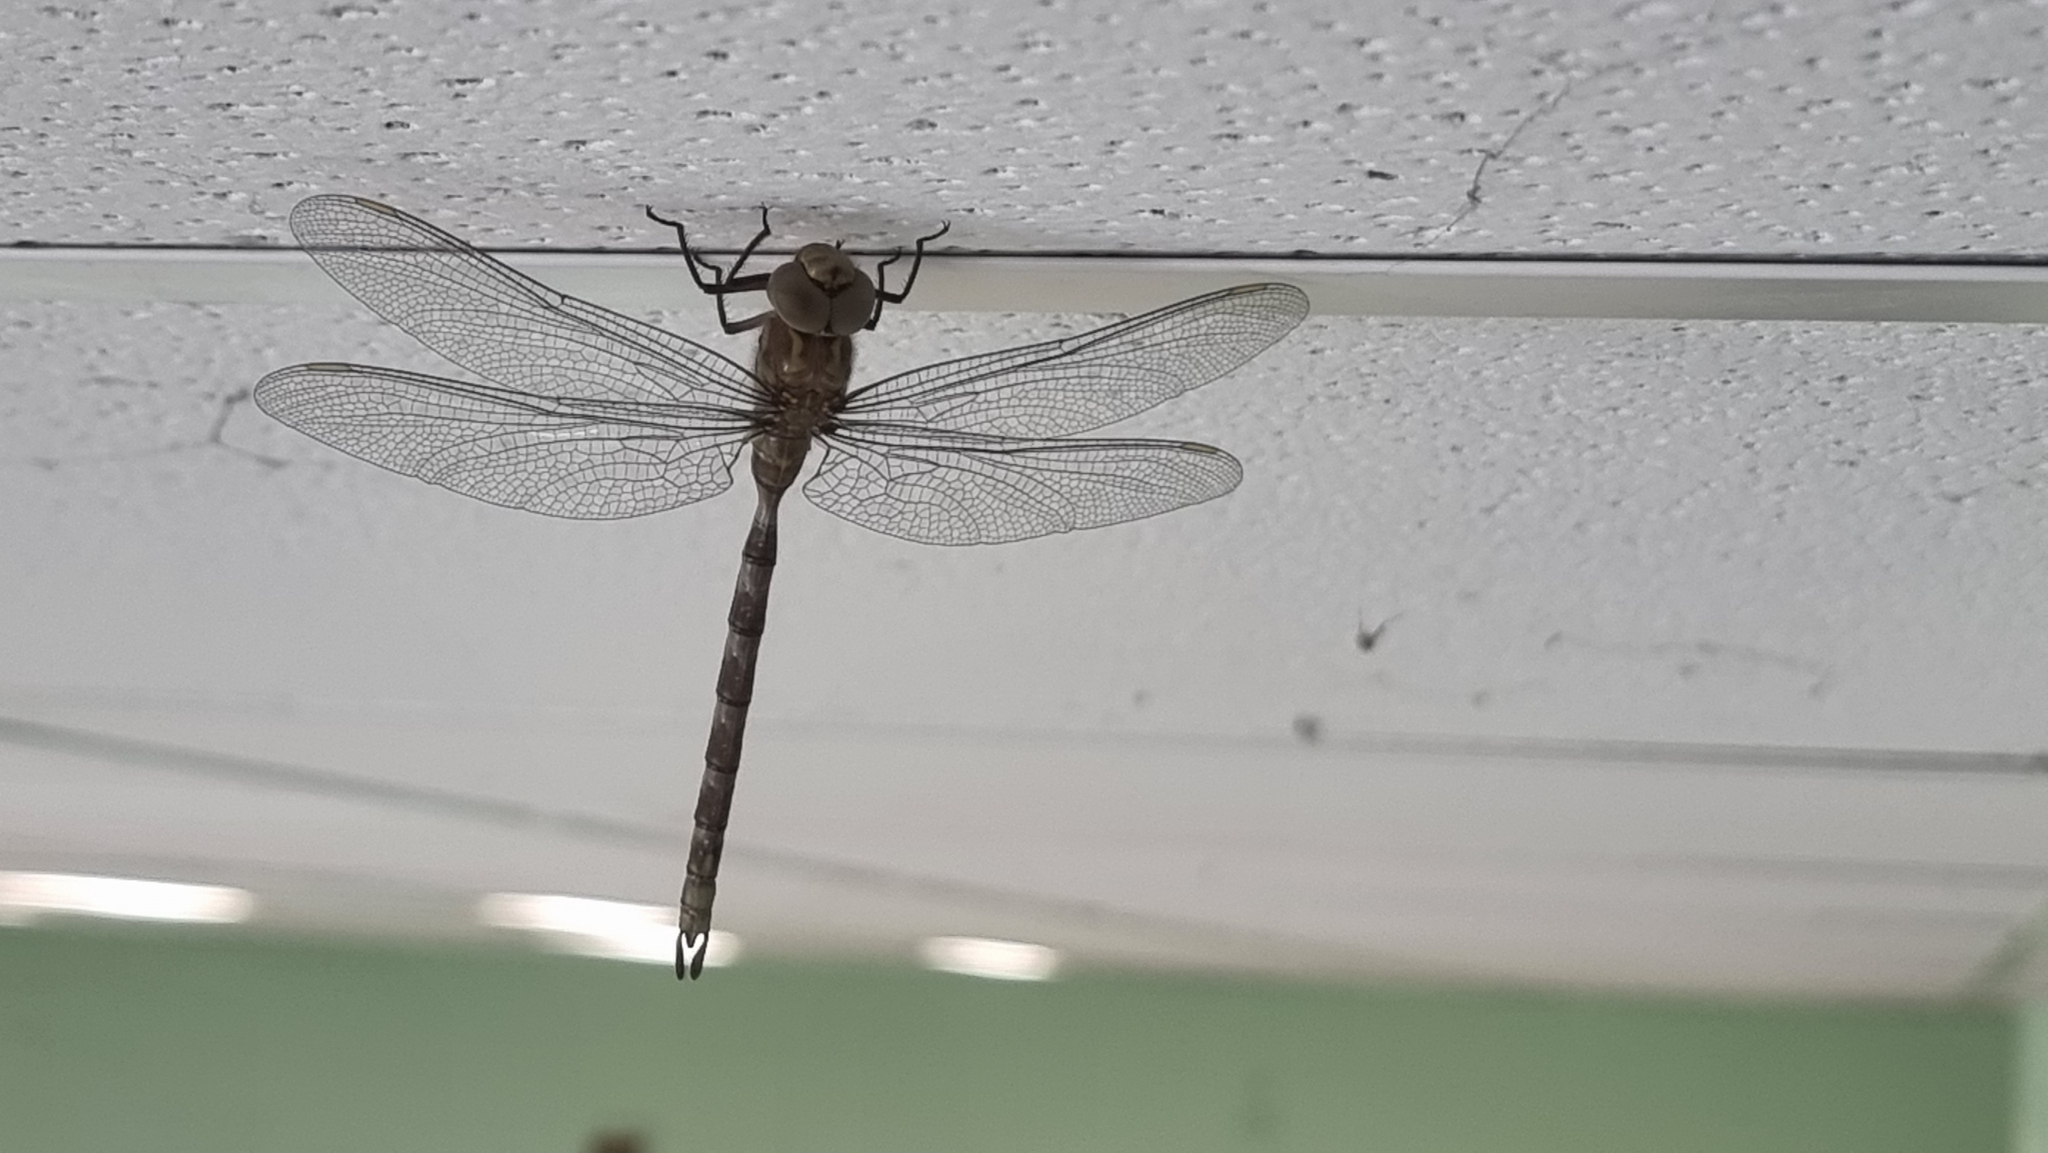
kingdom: Animalia
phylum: Arthropoda
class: Insecta
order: Odonata
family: Aeshnidae
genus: Boyeria
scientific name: Boyeria irene
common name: Western spectre
